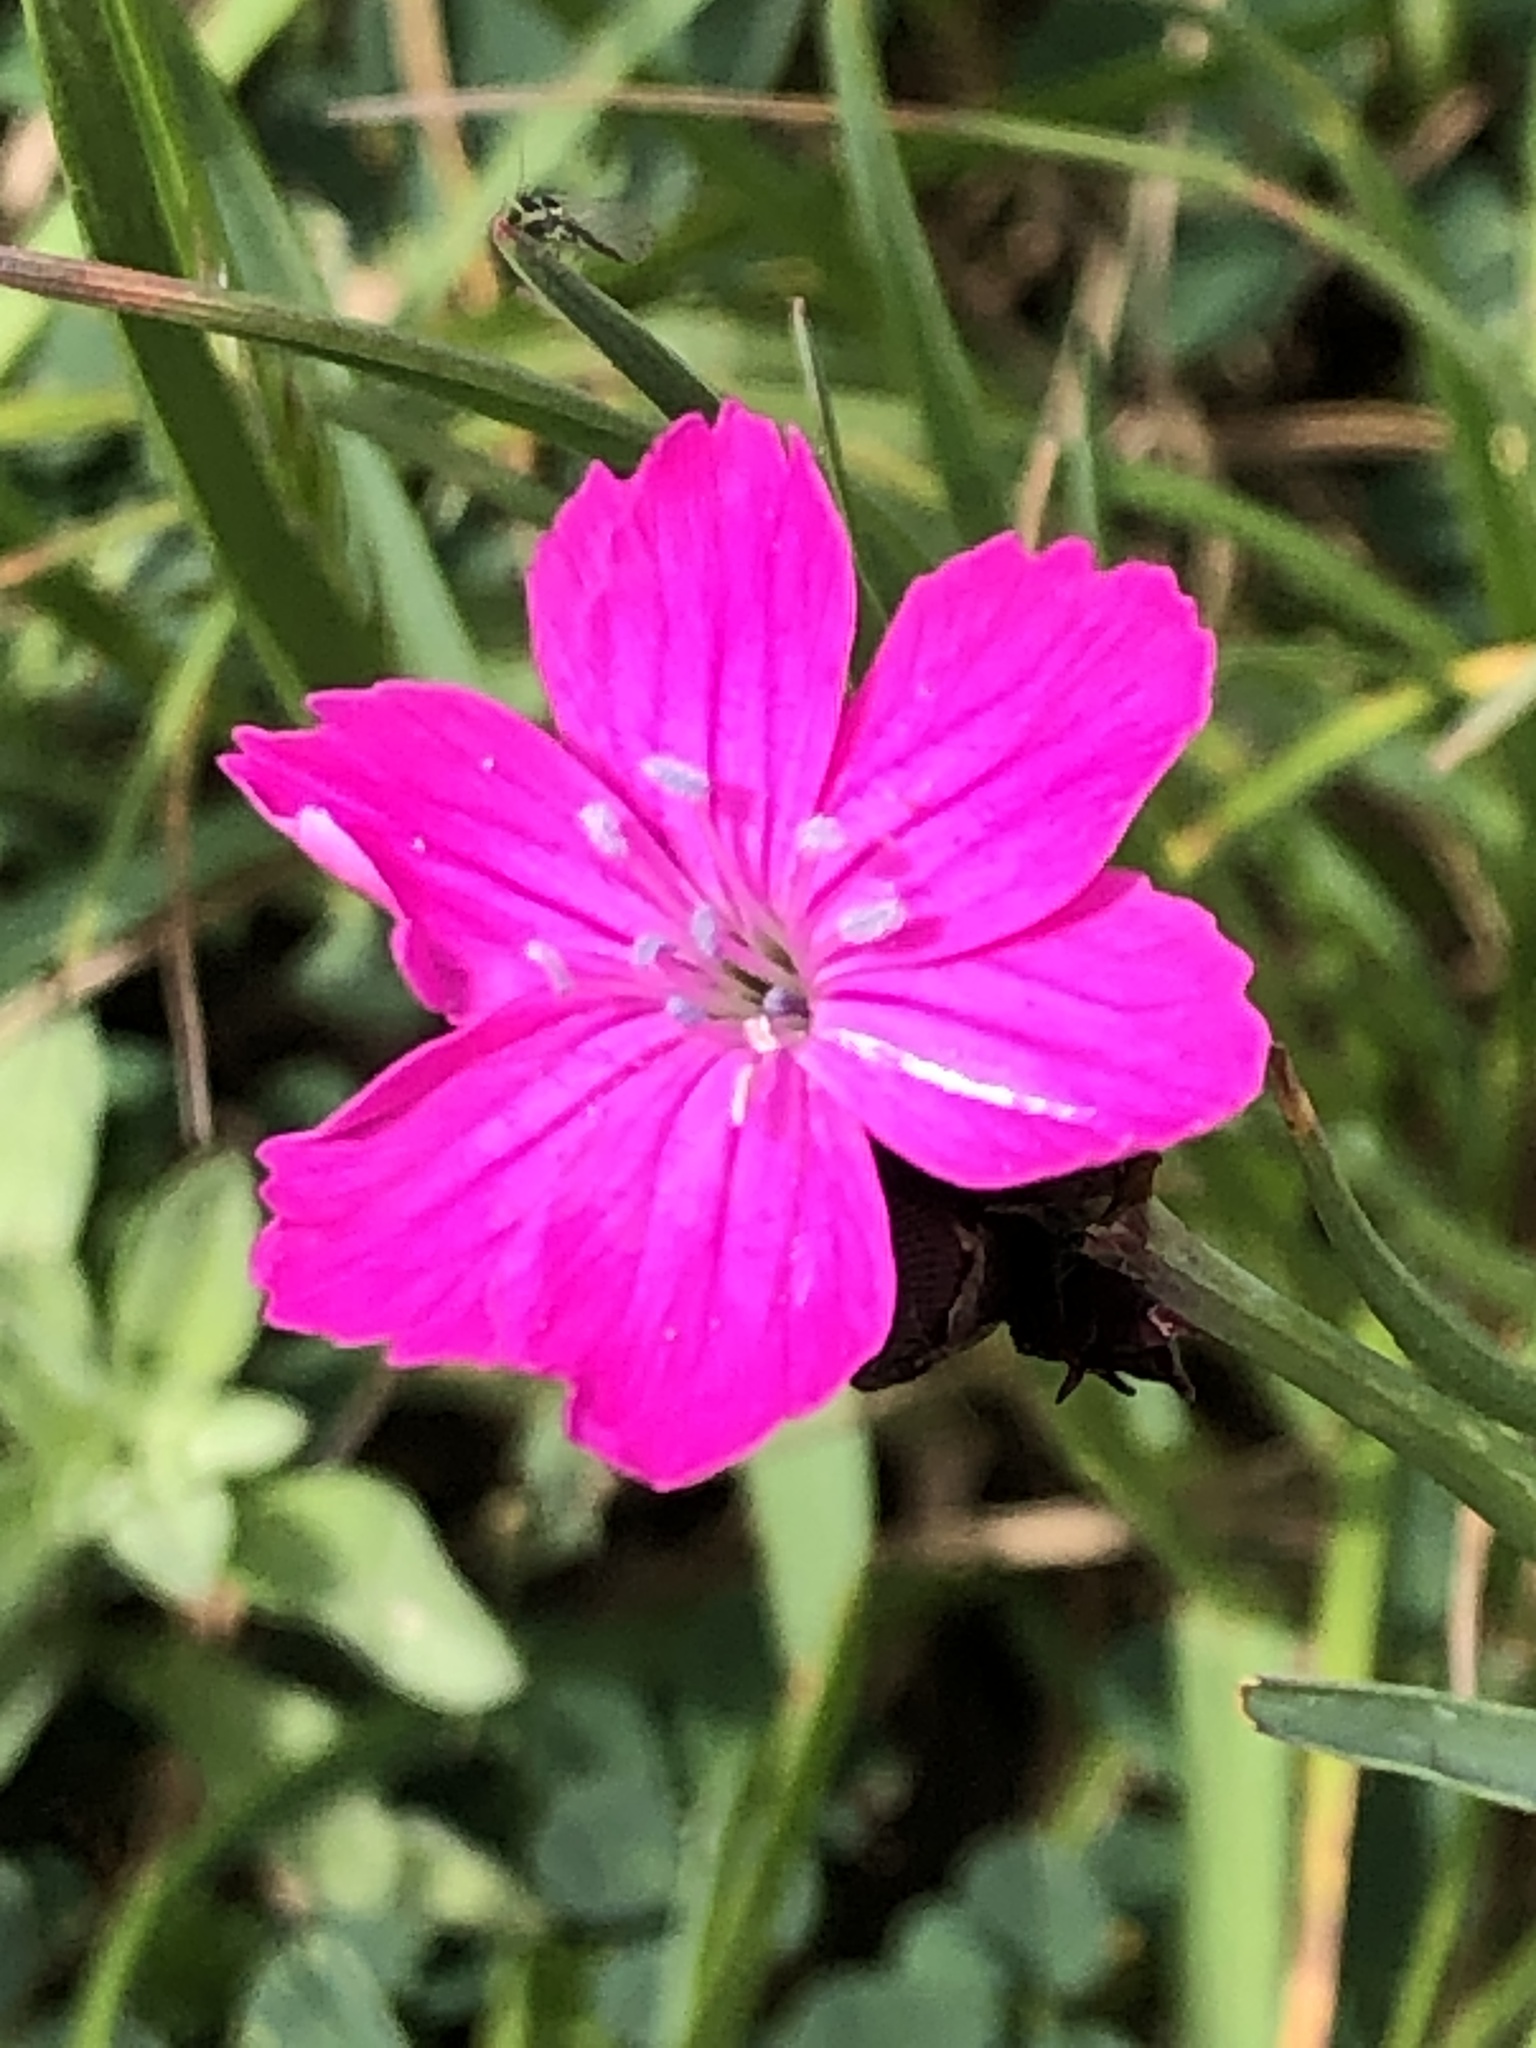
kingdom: Plantae
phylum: Tracheophyta
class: Magnoliopsida
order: Caryophyllales
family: Caryophyllaceae
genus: Dianthus
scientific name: Dianthus carthusianorum
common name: Carthusian pink
